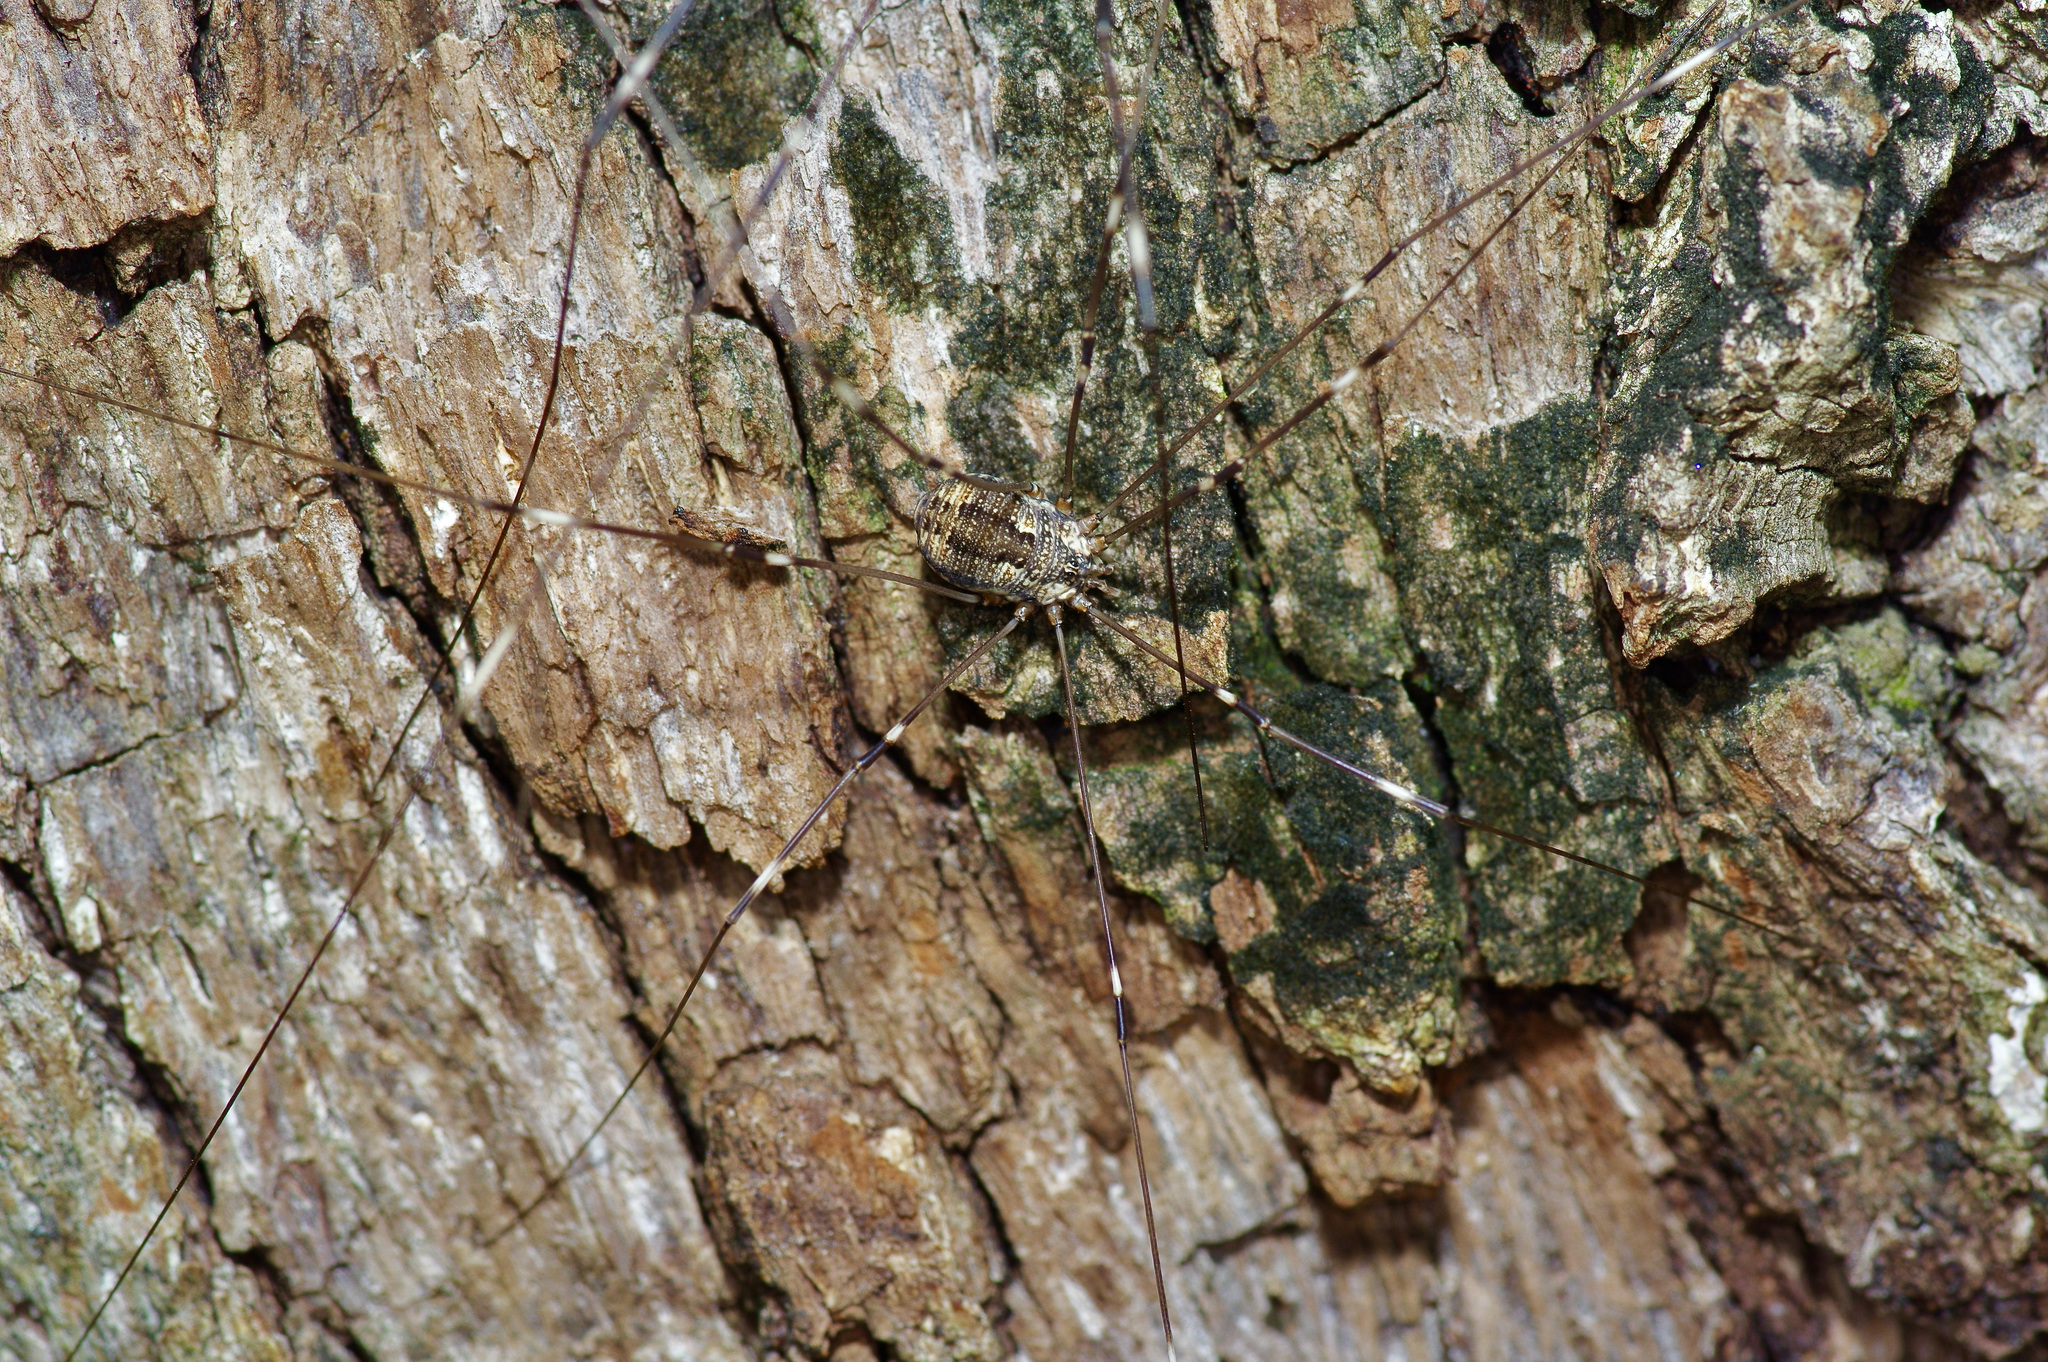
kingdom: Animalia
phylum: Arthropoda
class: Arachnida
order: Opiliones
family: Sclerosomatidae
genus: Leiobunum
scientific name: Leiobunum townsendi
